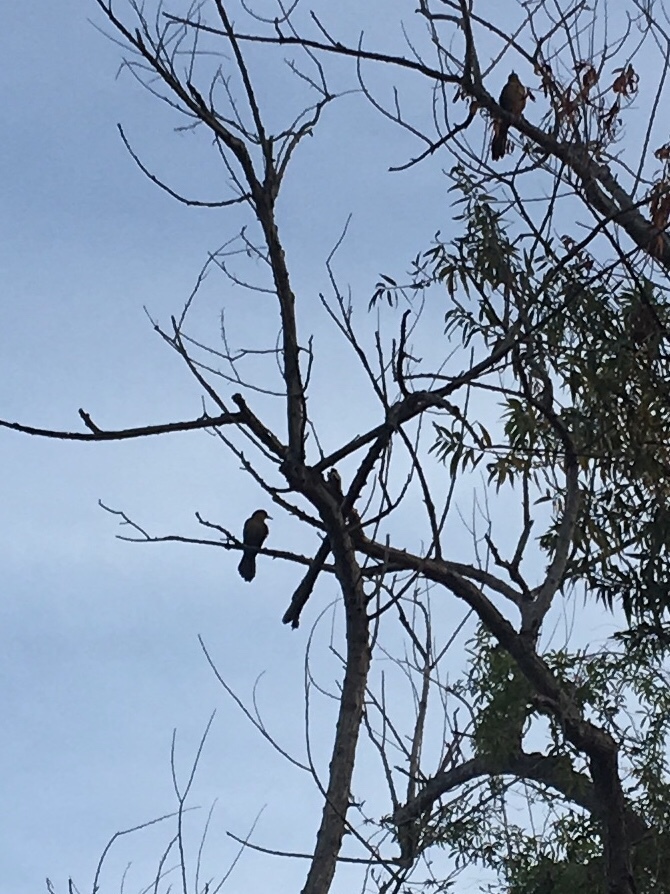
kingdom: Animalia
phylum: Chordata
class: Aves
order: Passeriformes
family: Icteridae
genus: Quiscalus
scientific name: Quiscalus mexicanus
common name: Great-tailed grackle
